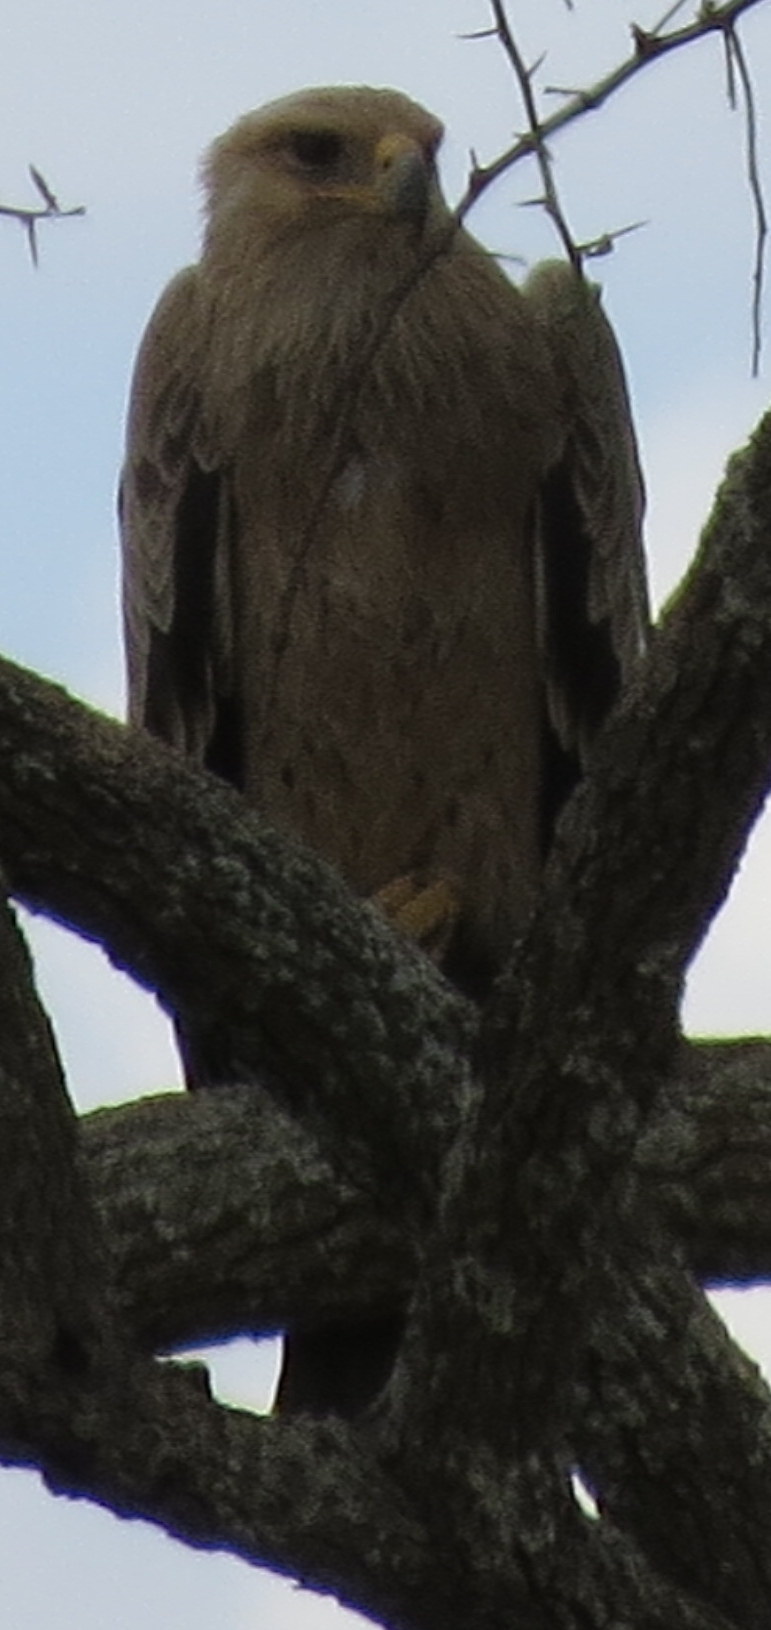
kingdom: Animalia
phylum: Chordata
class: Aves
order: Accipitriformes
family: Accipitridae
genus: Aquila
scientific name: Aquila rapax
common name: Tawny eagle
